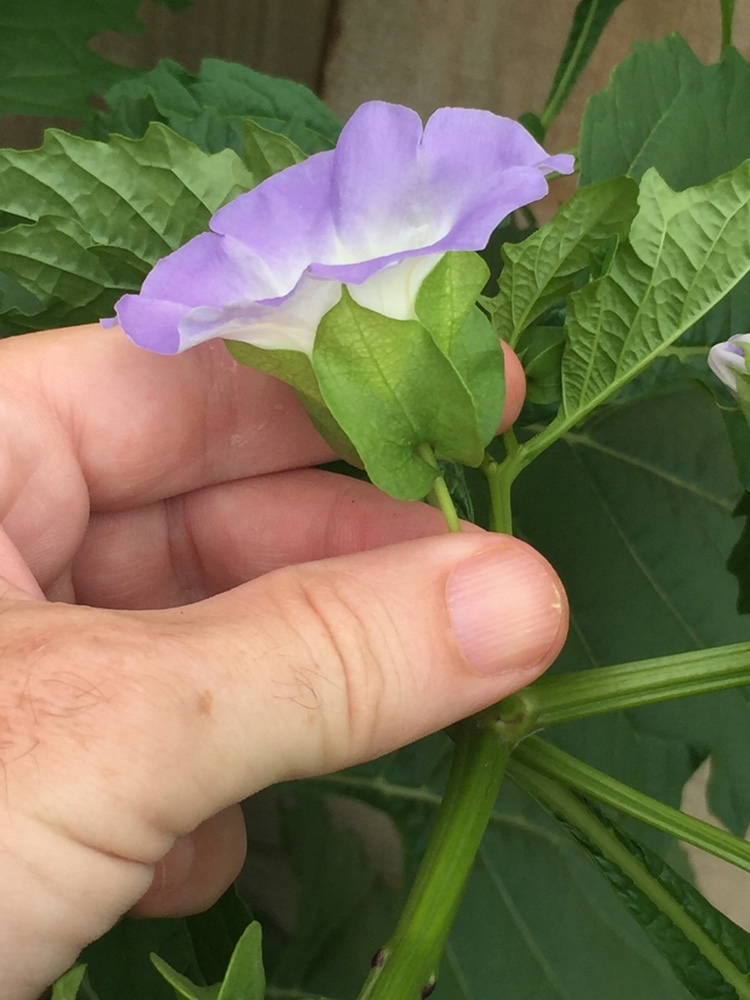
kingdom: Plantae
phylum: Tracheophyta
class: Magnoliopsida
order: Solanales
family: Solanaceae
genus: Nicandra
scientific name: Nicandra physalodes
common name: Apple-of-peru
